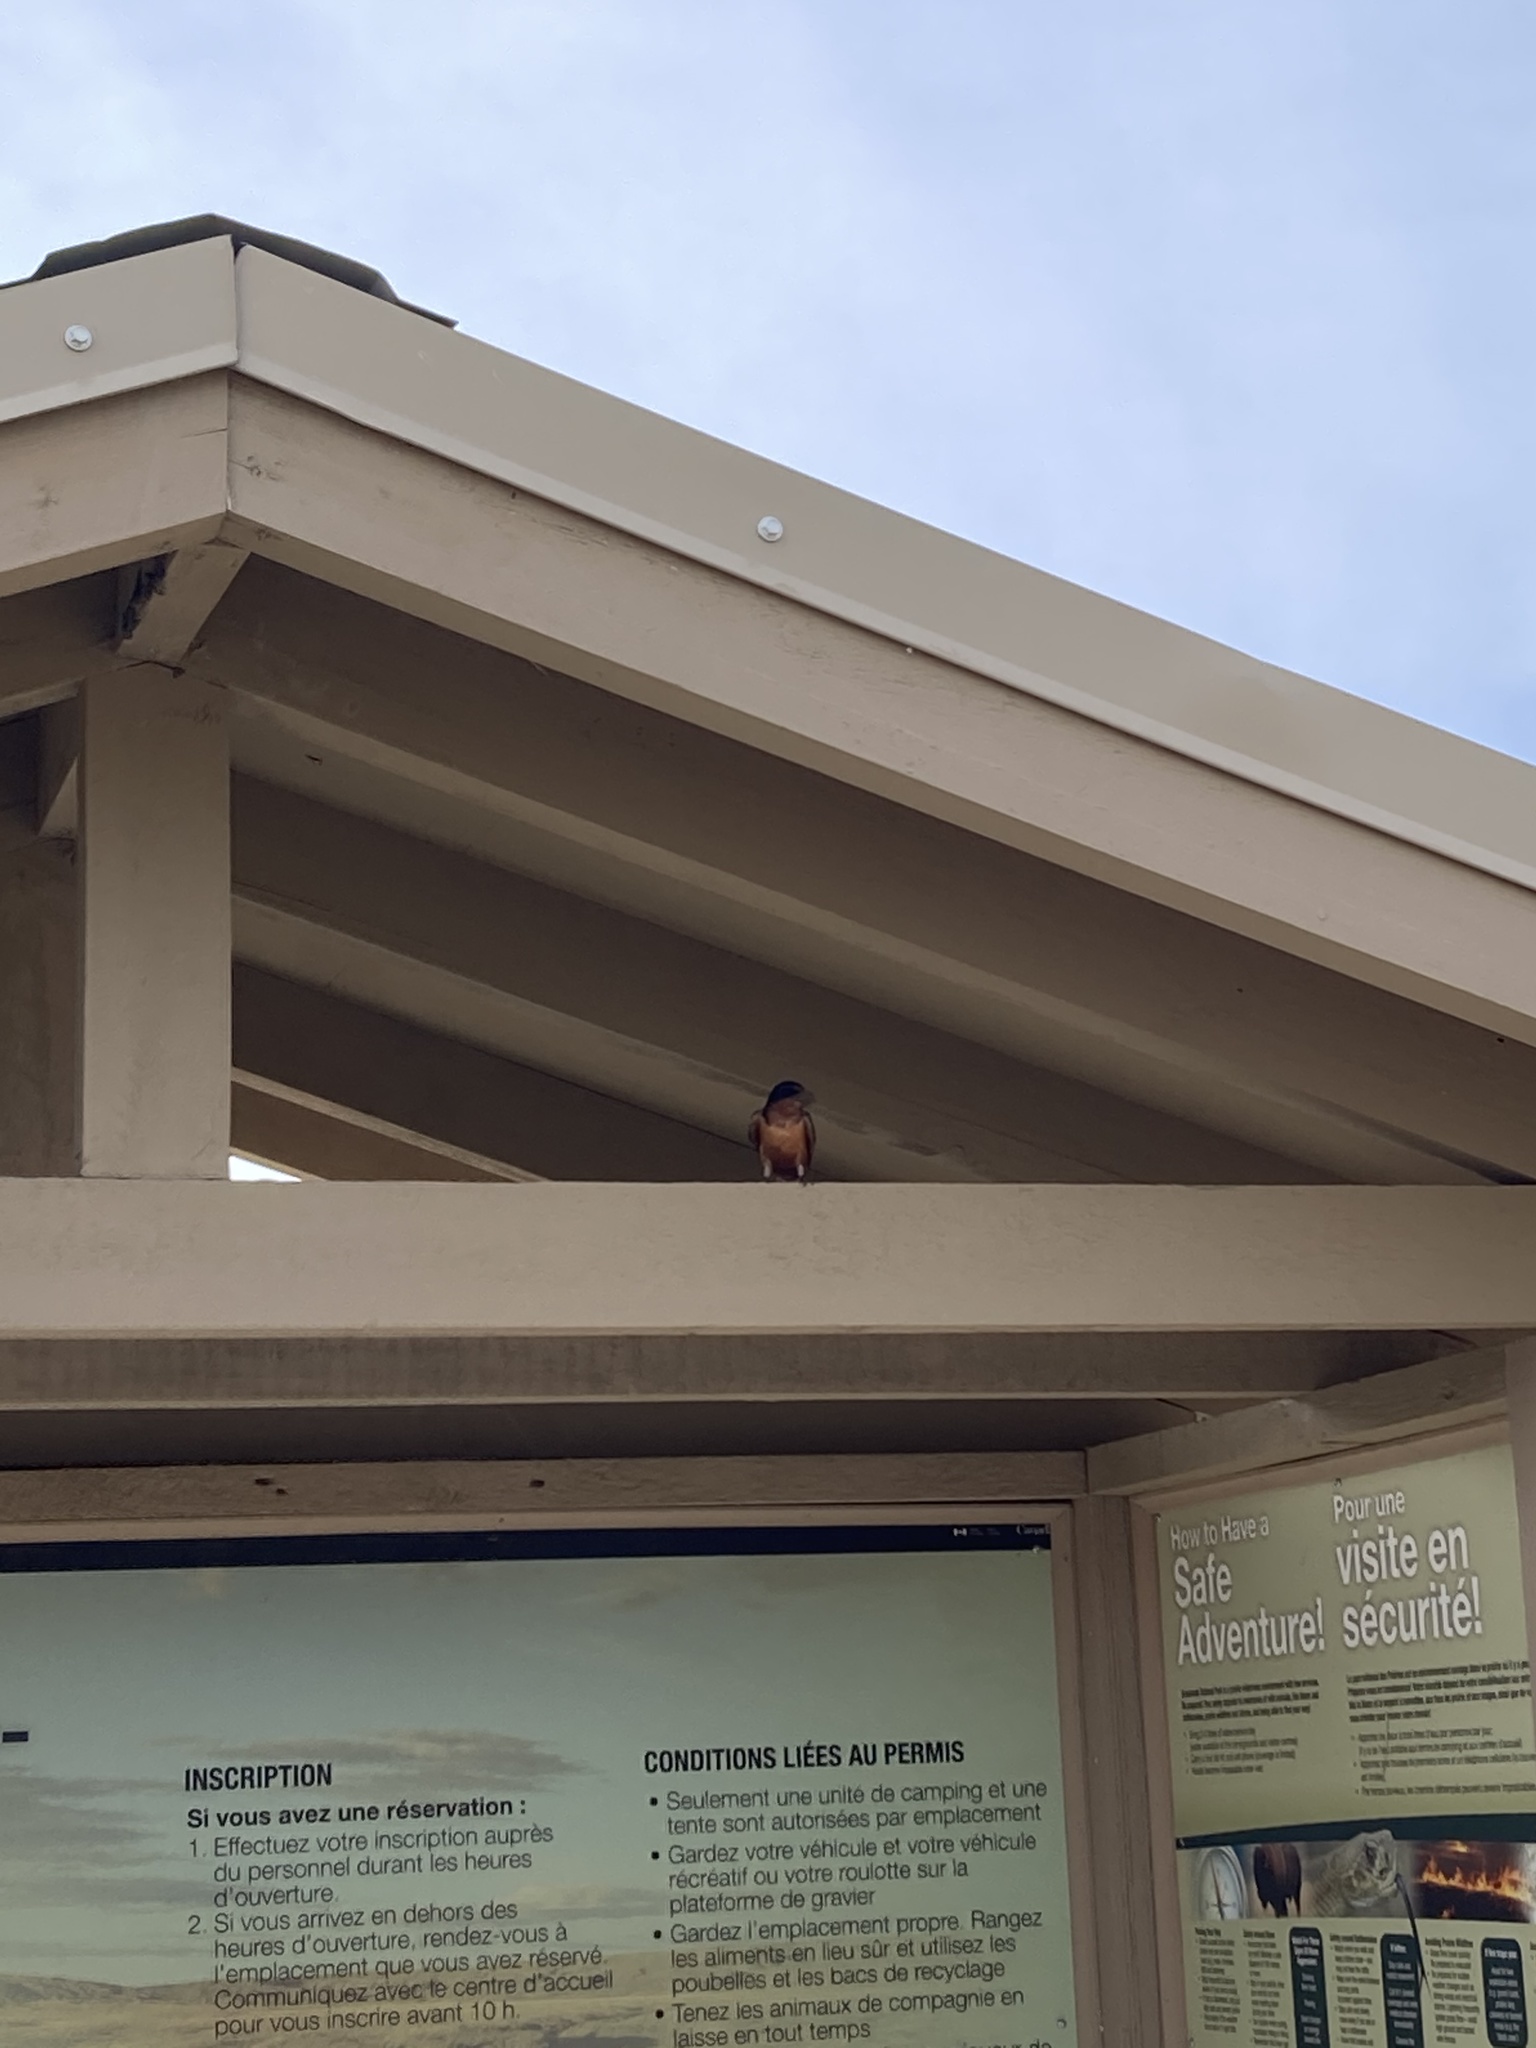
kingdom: Animalia
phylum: Chordata
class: Aves
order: Passeriformes
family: Hirundinidae
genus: Hirundo
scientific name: Hirundo rustica
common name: Barn swallow
